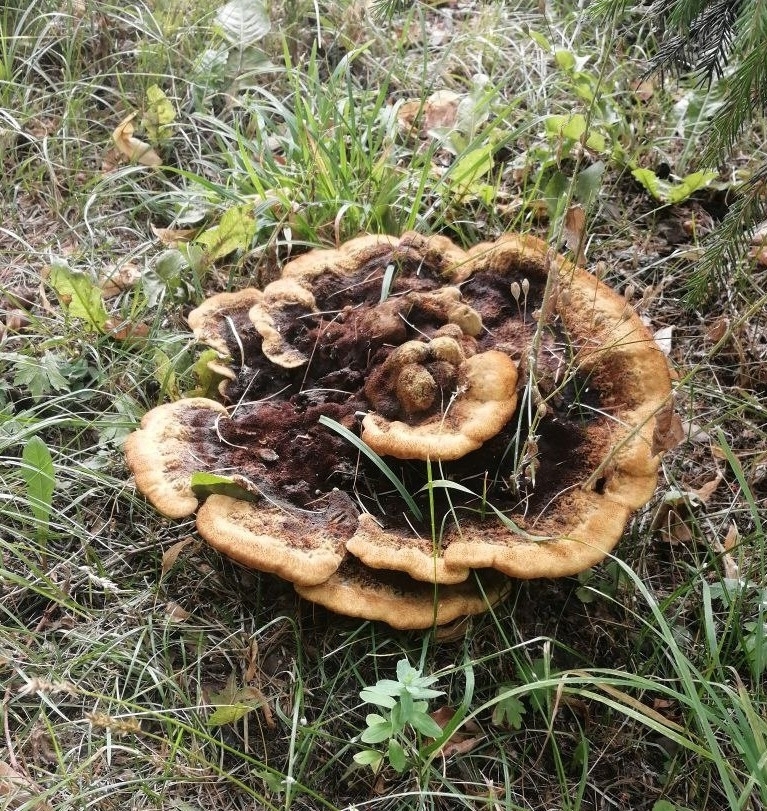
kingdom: Fungi
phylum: Basidiomycota
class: Agaricomycetes
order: Polyporales
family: Laetiporaceae
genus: Phaeolus
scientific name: Phaeolus schweinitzii
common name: Dyer's mazegill
